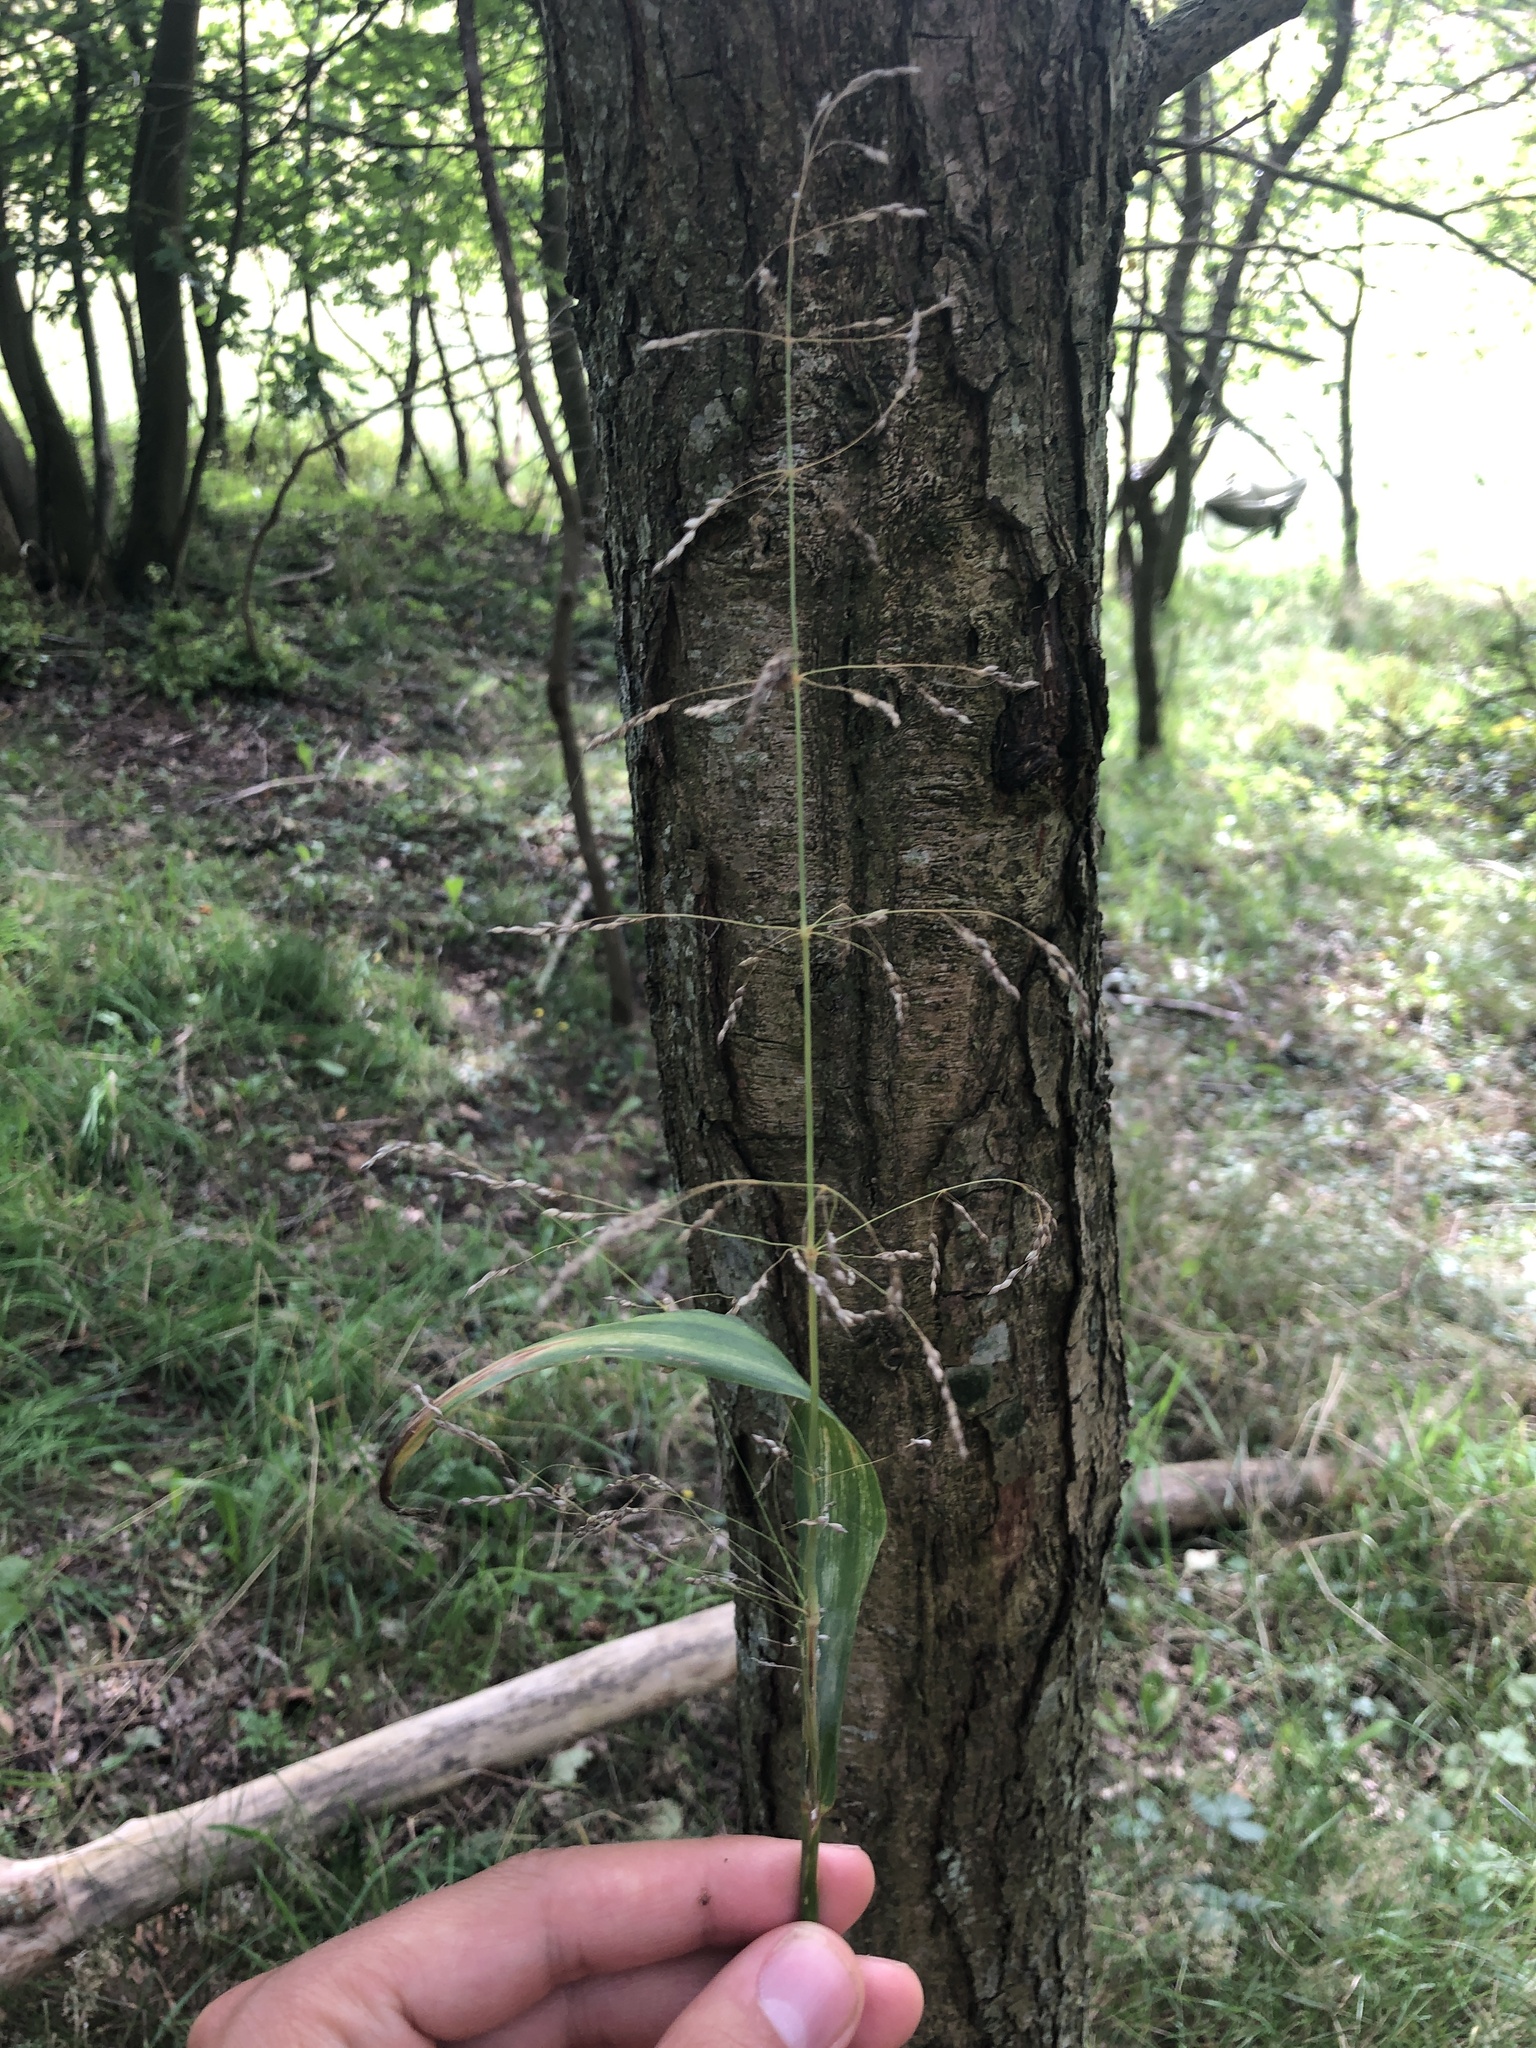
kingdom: Plantae
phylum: Tracheophyta
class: Liliopsida
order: Poales
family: Poaceae
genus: Milium
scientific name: Milium effusum
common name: Wood millet
